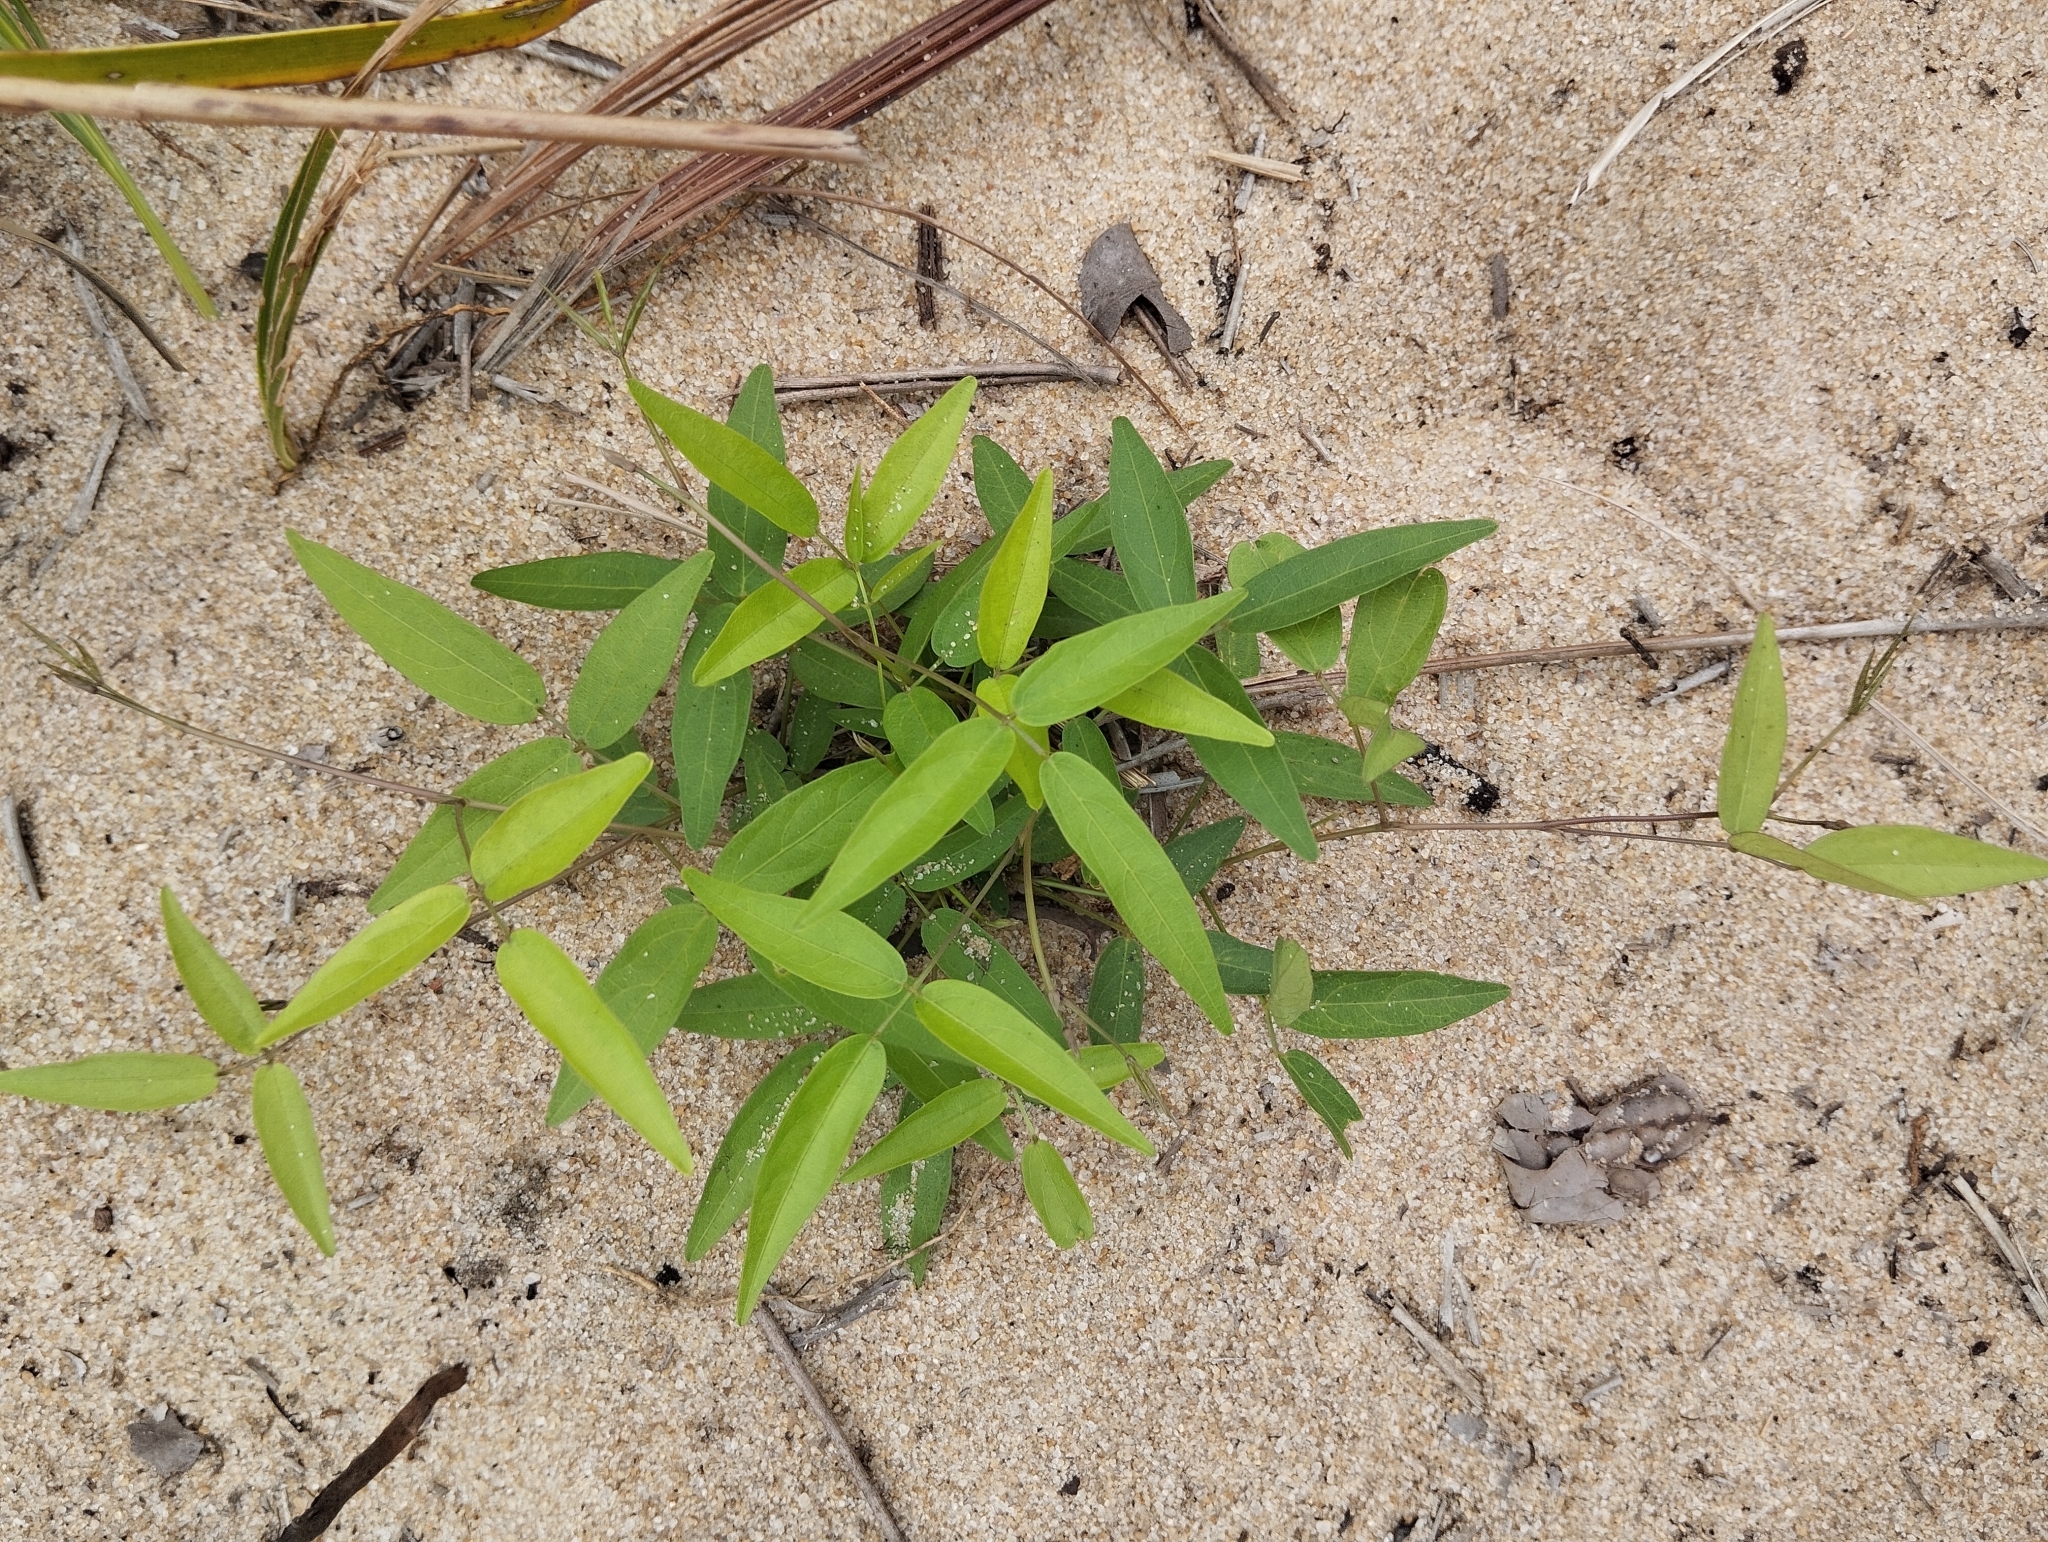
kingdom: Plantae
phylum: Tracheophyta
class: Magnoliopsida
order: Fabales
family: Fabaceae
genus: Centrosema
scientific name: Centrosema brasilianum
